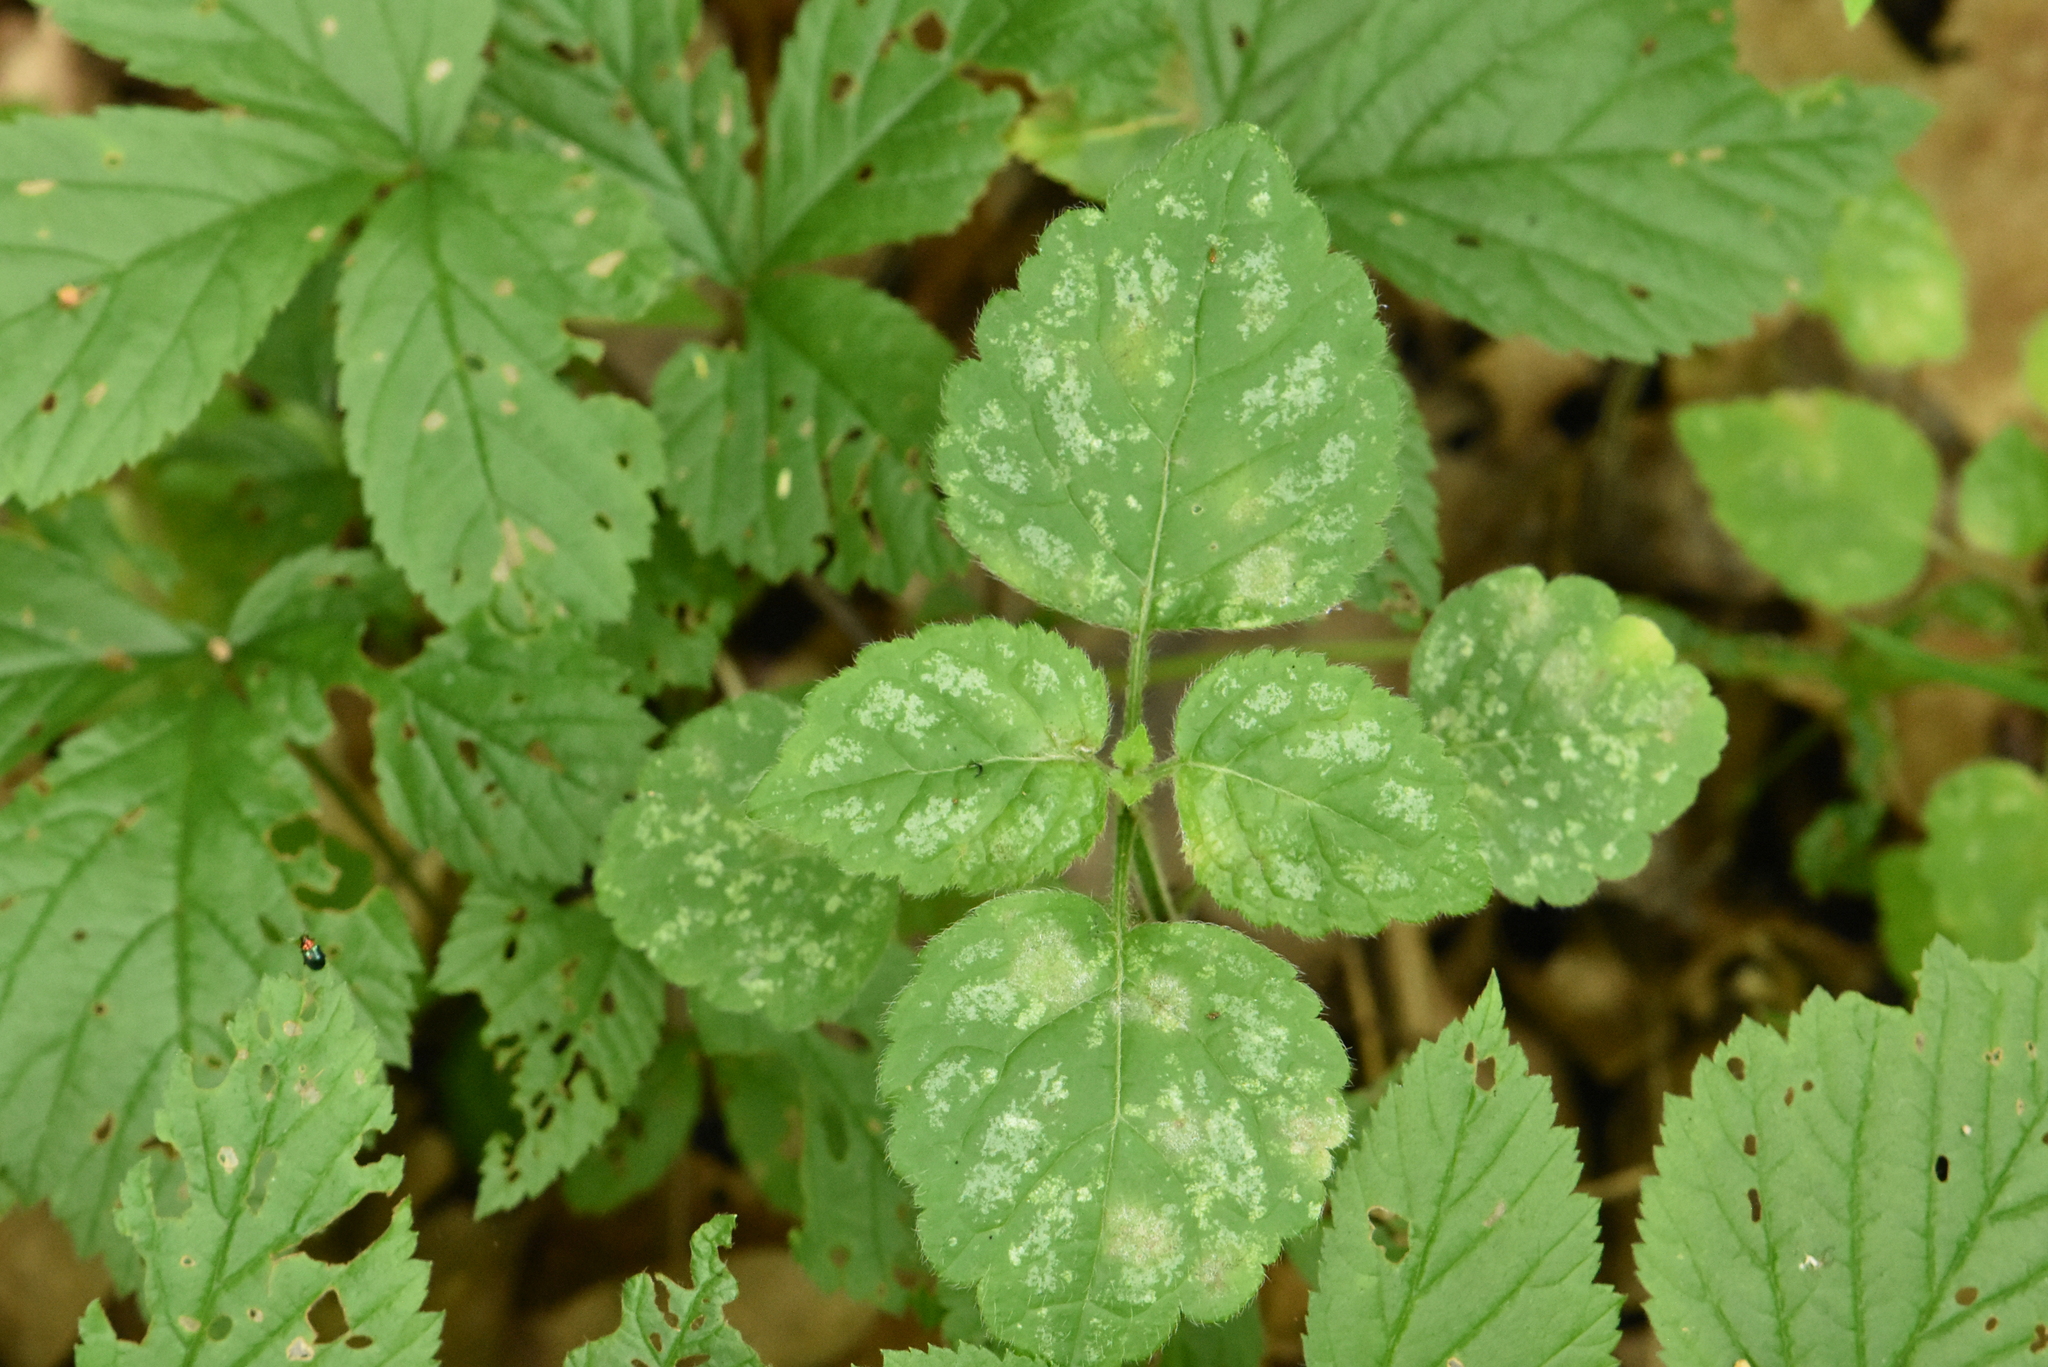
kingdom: Plantae
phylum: Tracheophyta
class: Magnoliopsida
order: Lamiales
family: Lamiaceae
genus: Lamium
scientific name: Lamium galeobdolon
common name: Yellow archangel
